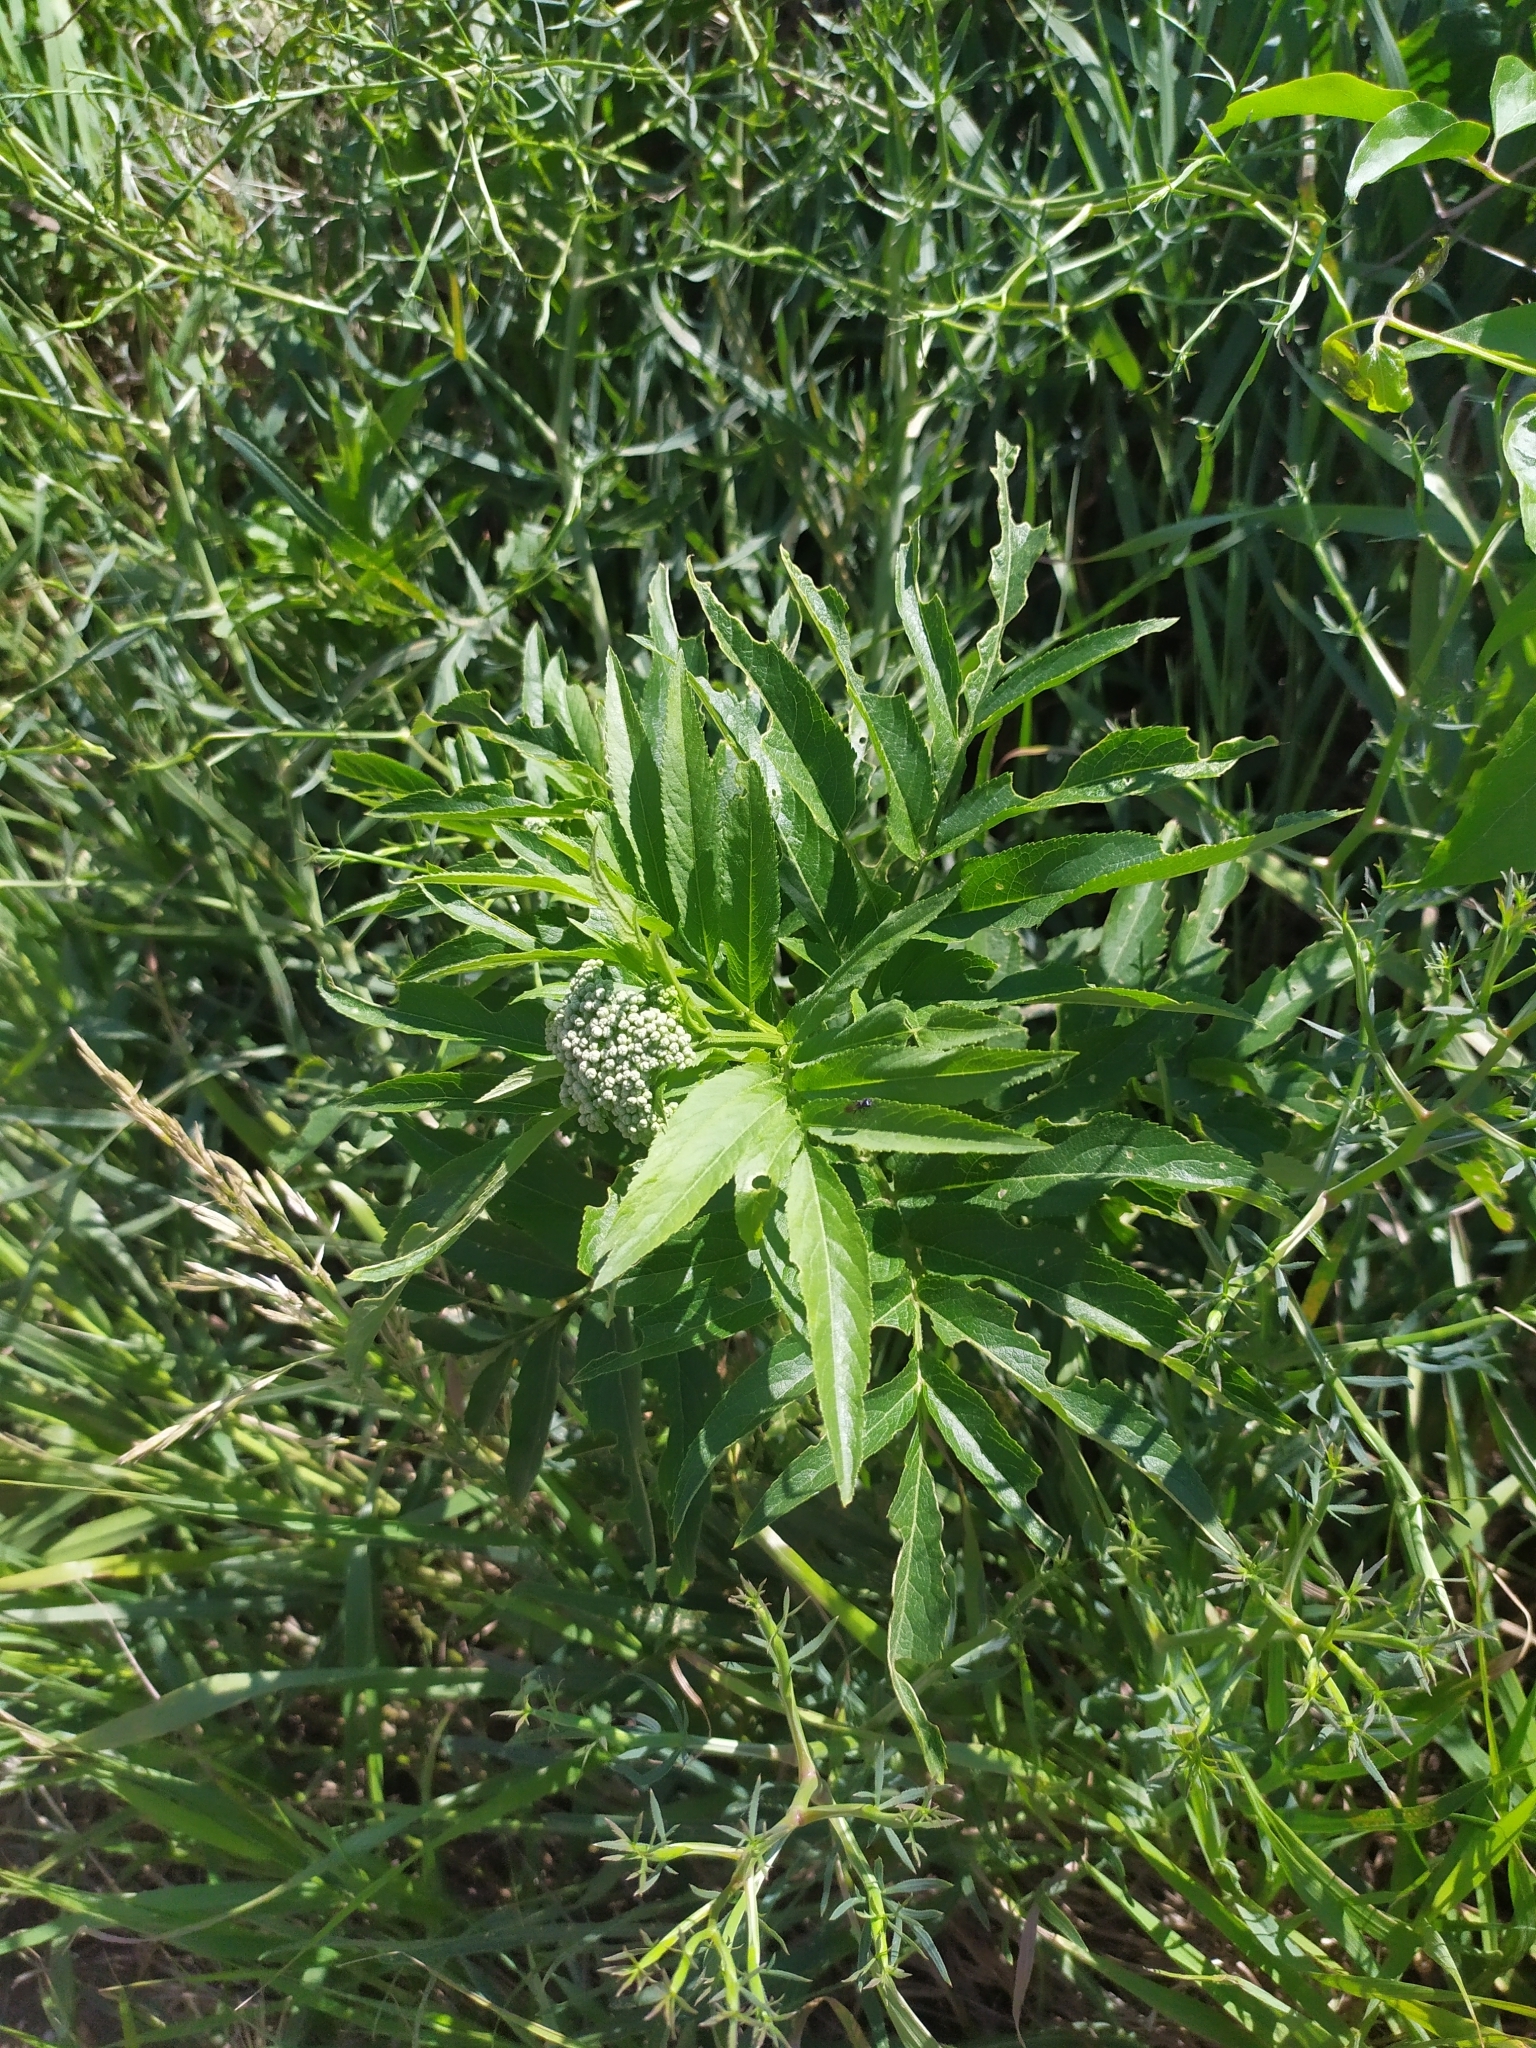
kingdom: Plantae
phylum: Tracheophyta
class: Magnoliopsida
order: Dipsacales
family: Viburnaceae
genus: Sambucus
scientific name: Sambucus ebulus
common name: Dwarf elder
